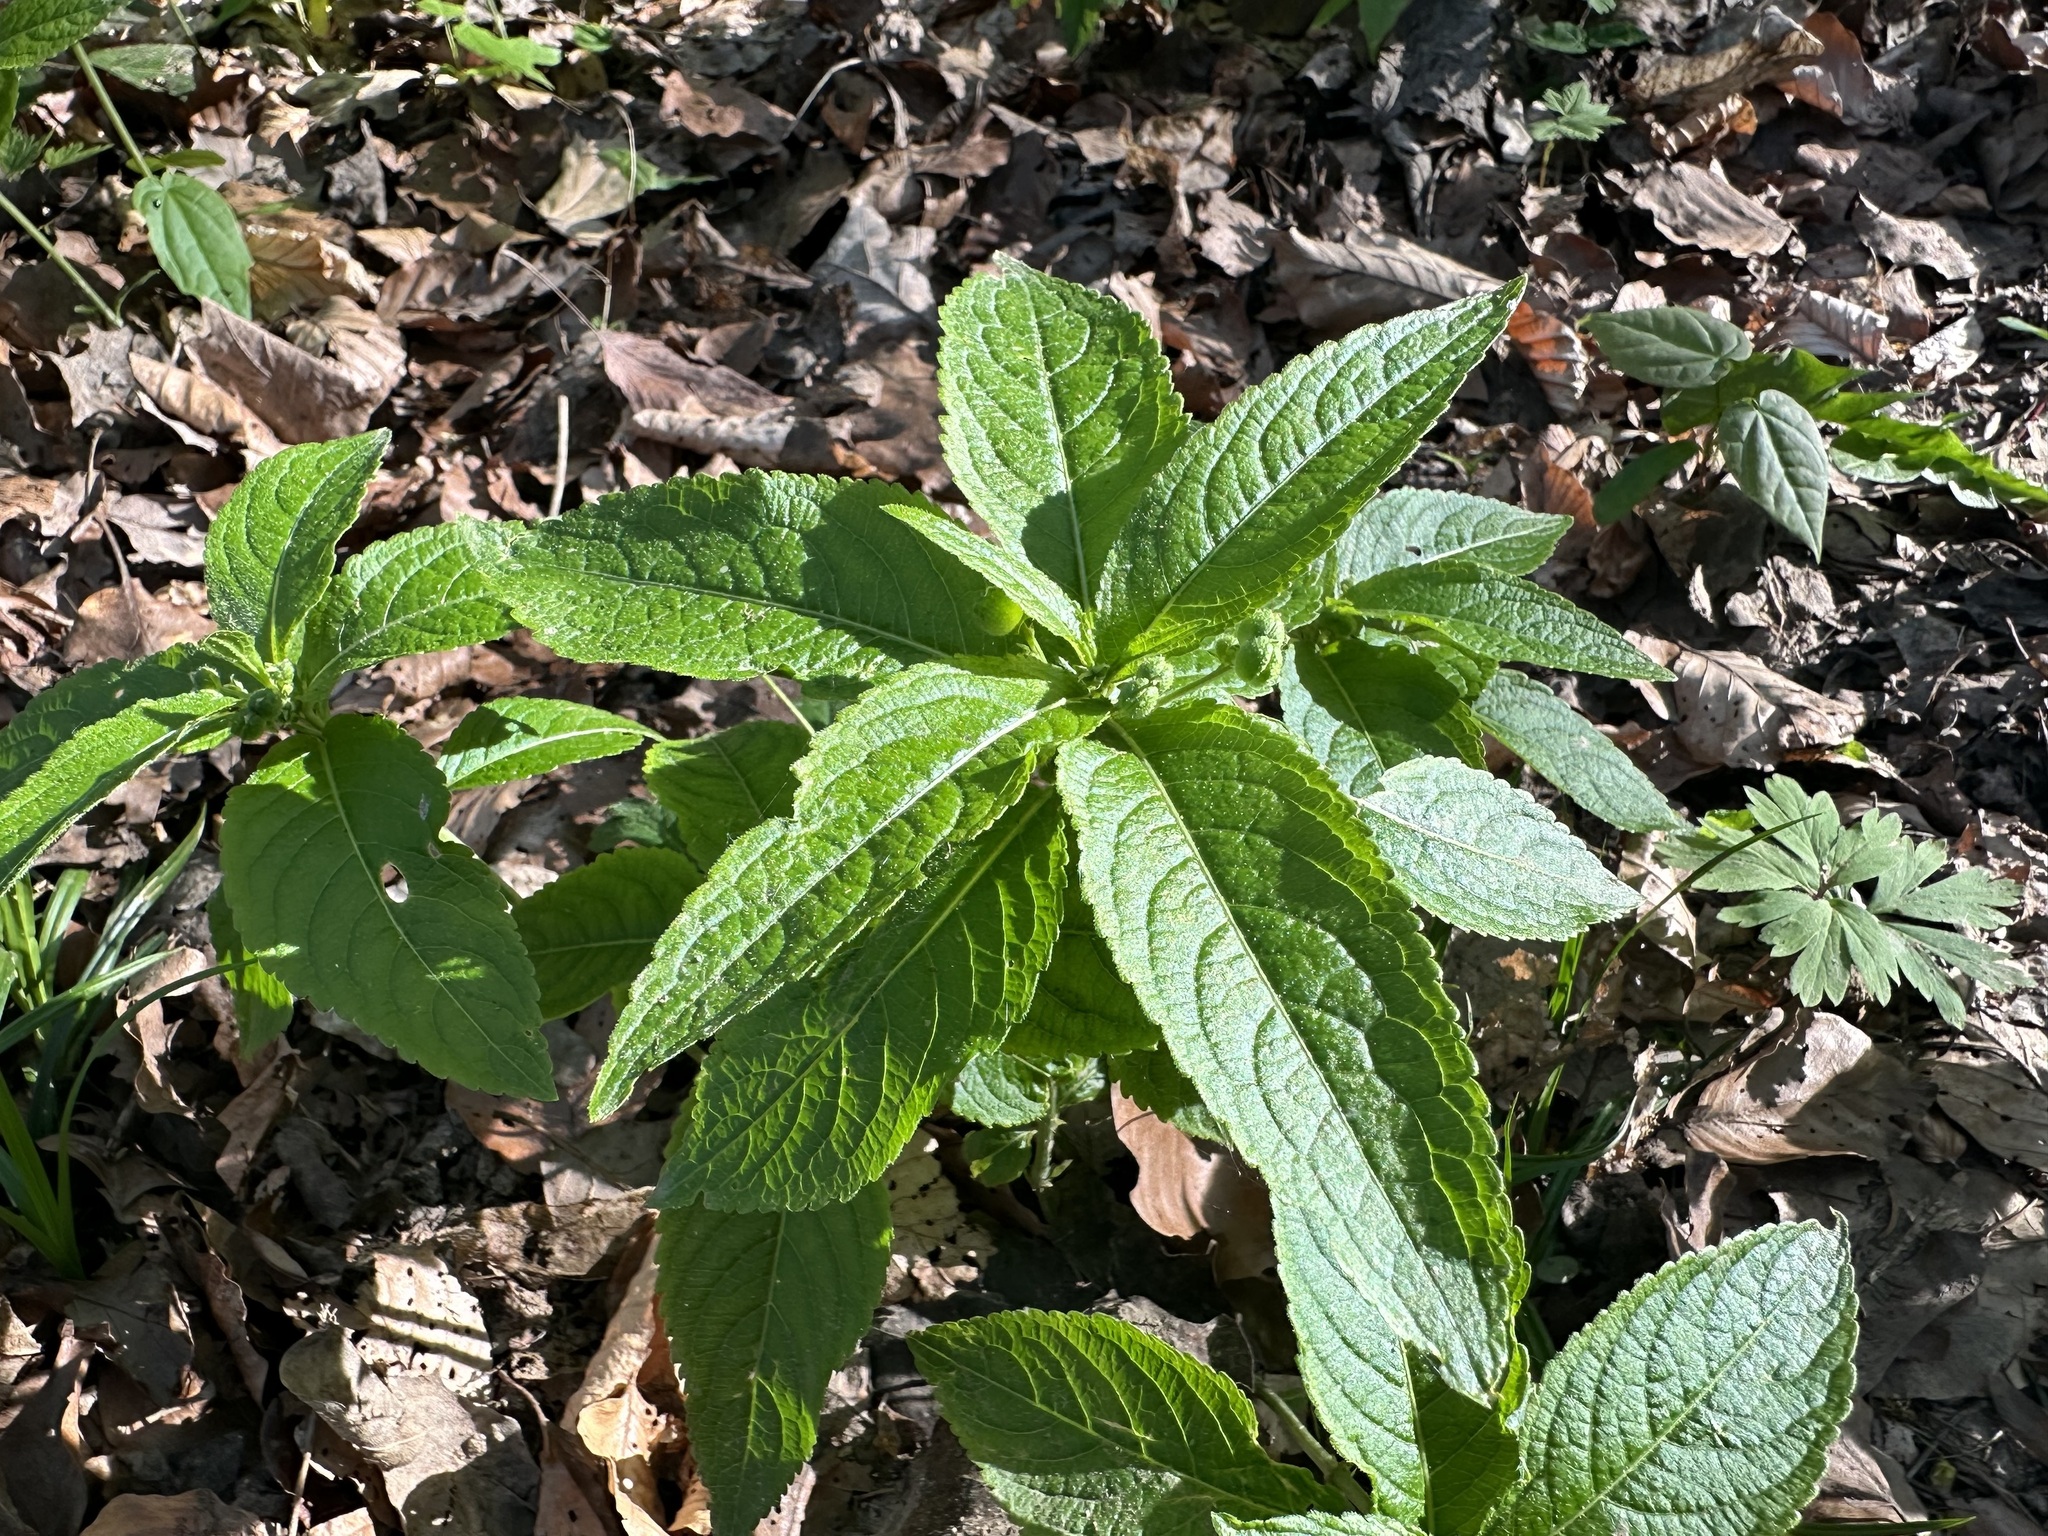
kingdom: Plantae
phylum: Tracheophyta
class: Magnoliopsida
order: Malpighiales
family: Euphorbiaceae
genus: Mercurialis
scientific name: Mercurialis perennis
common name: Dog mercury
